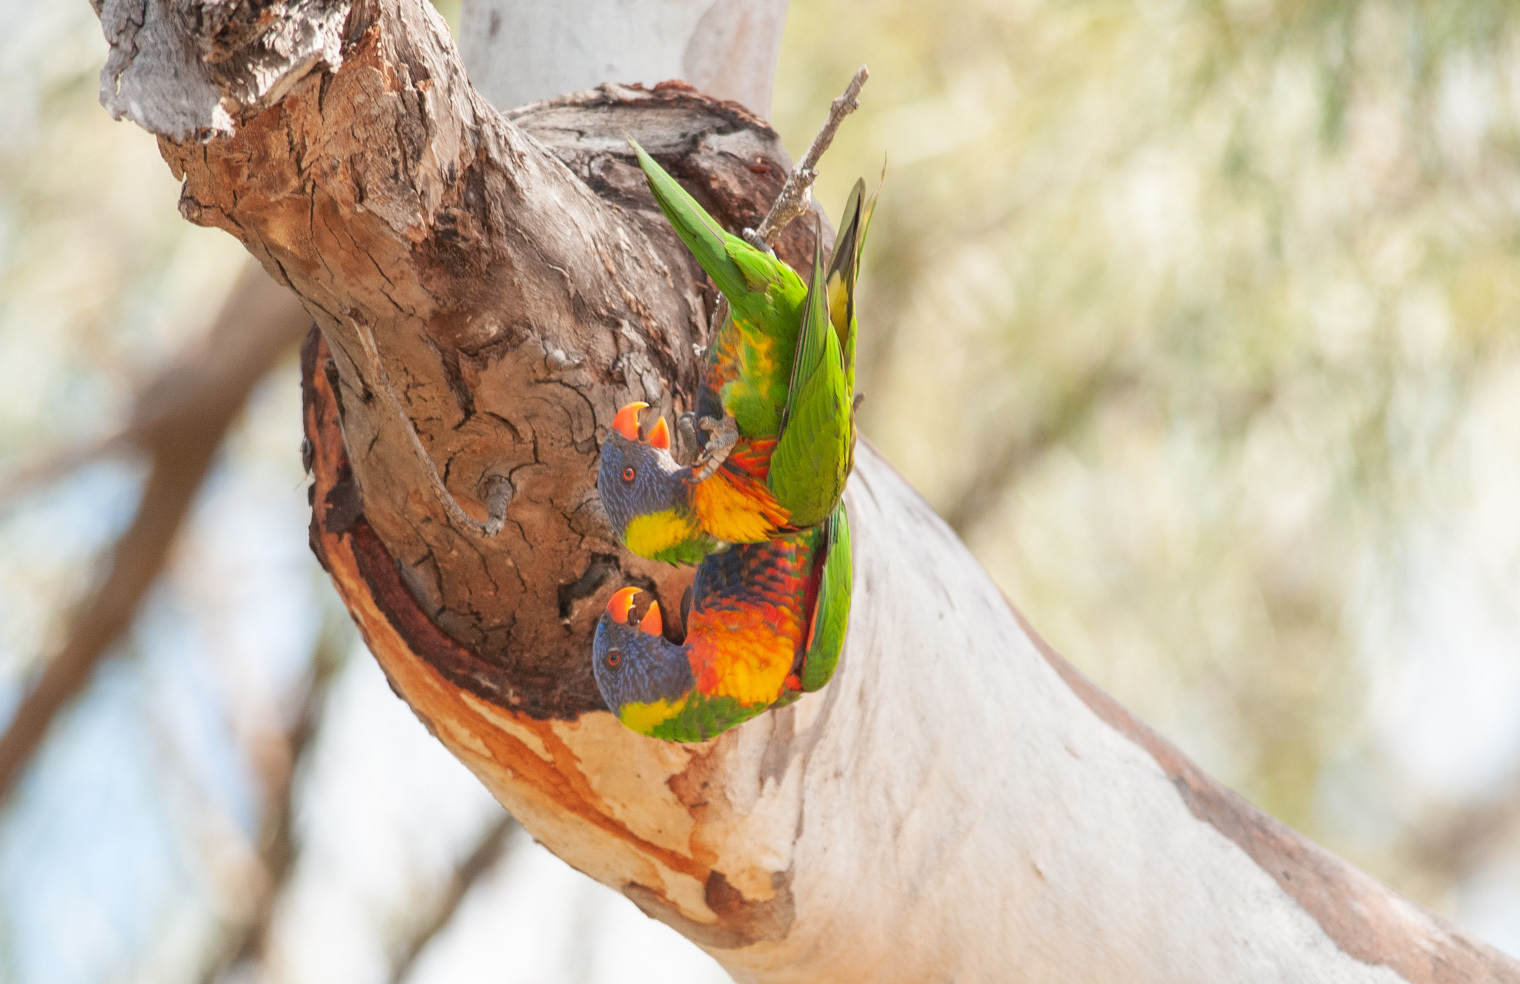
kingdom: Animalia
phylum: Chordata
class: Aves
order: Psittaciformes
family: Psittacidae
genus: Trichoglossus
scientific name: Trichoglossus haematodus
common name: Coconut lorikeet
